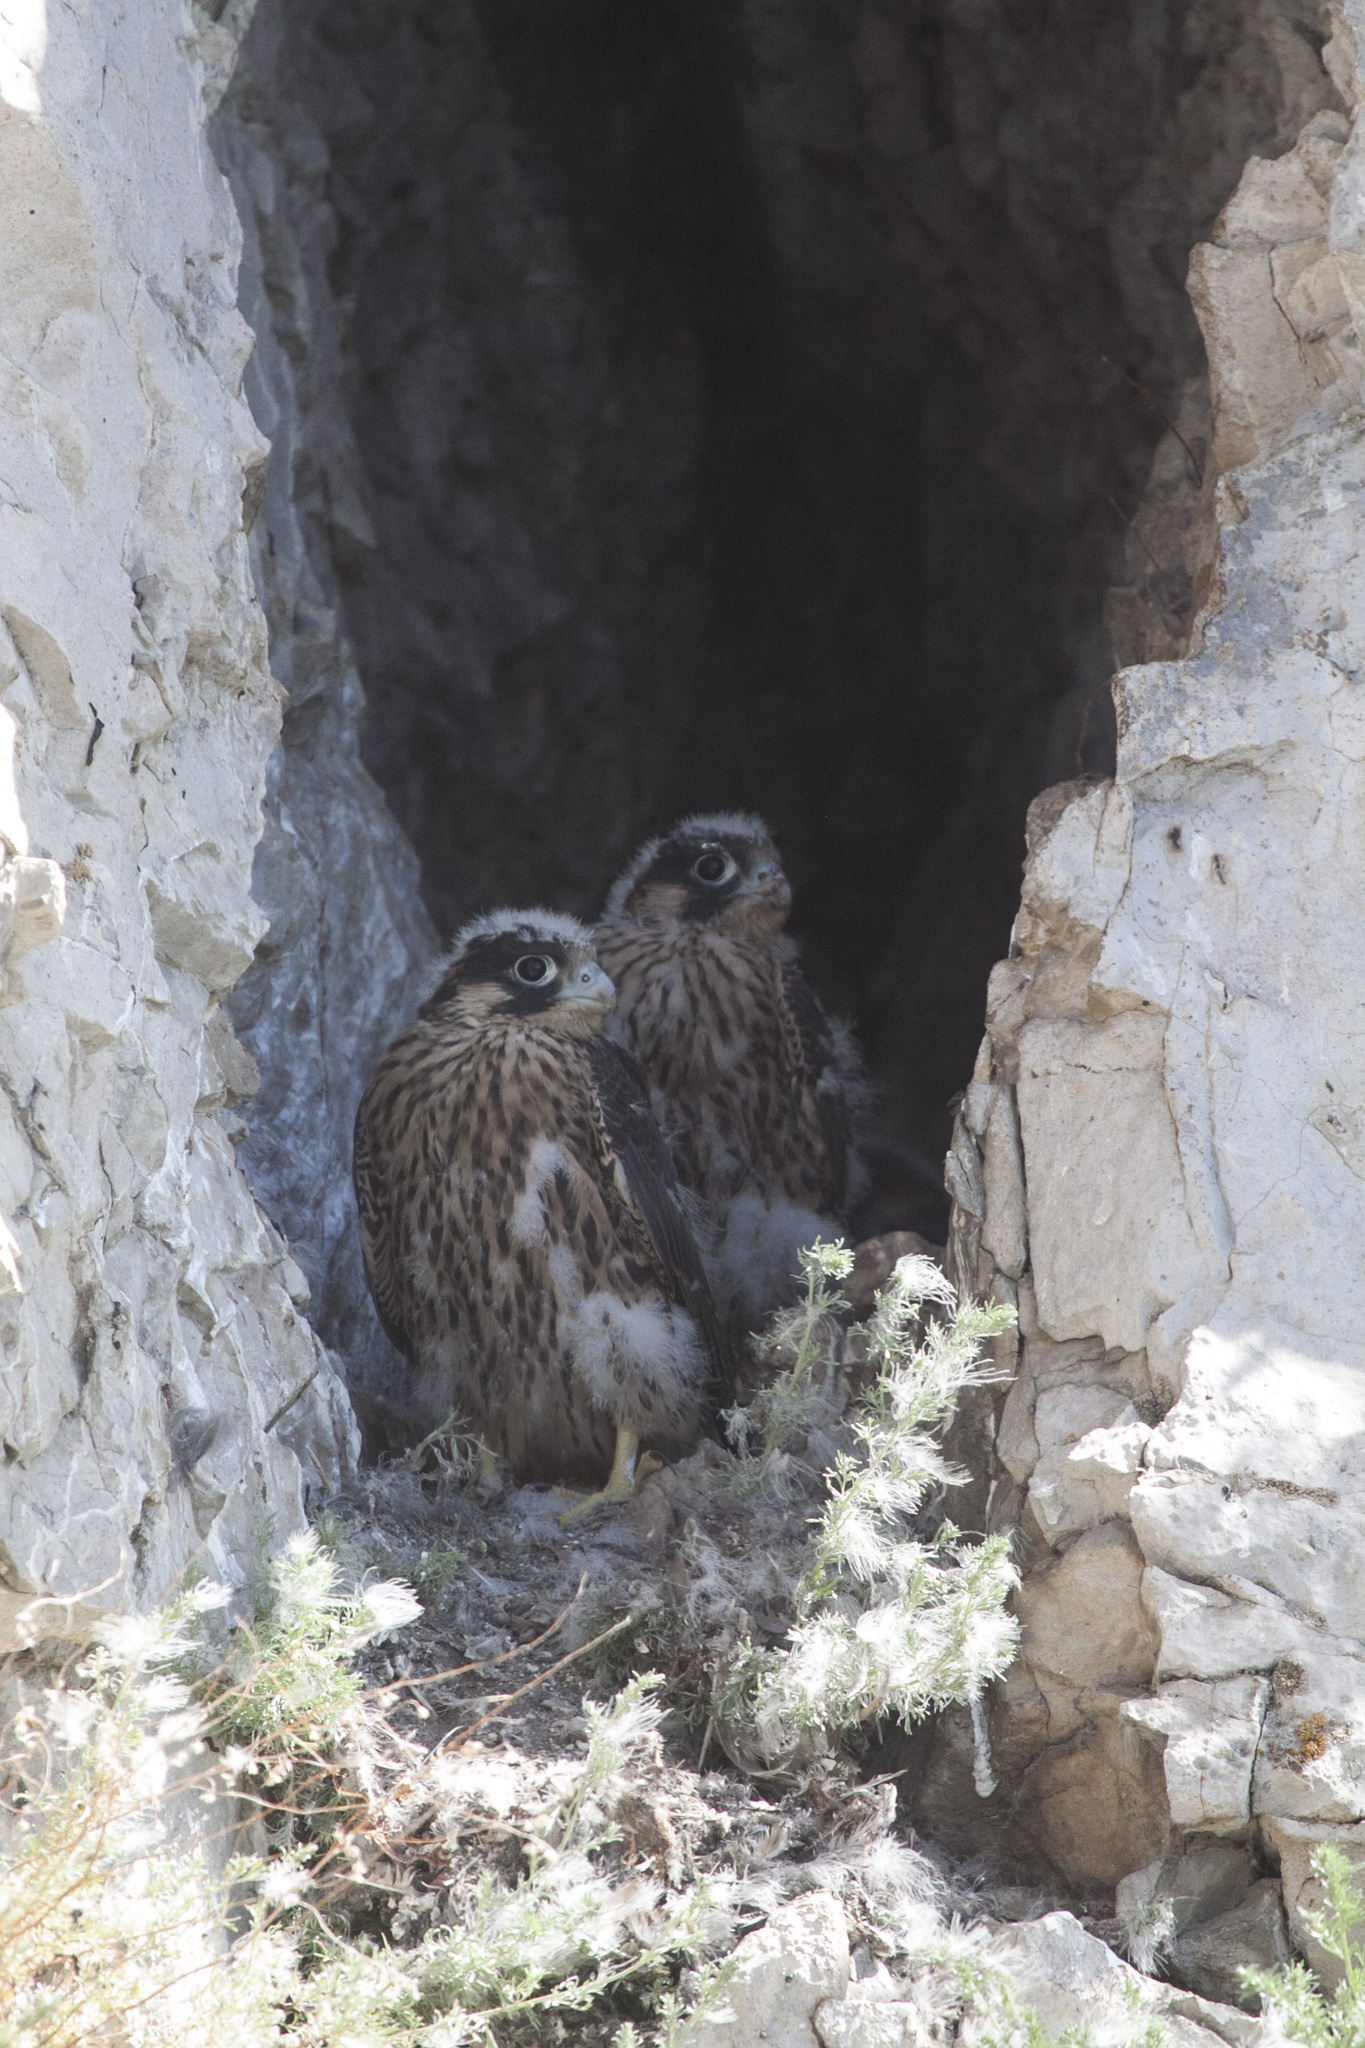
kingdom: Animalia
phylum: Chordata
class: Aves
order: Falconiformes
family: Falconidae
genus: Falco
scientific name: Falco peregrinus
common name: Peregrine falcon
